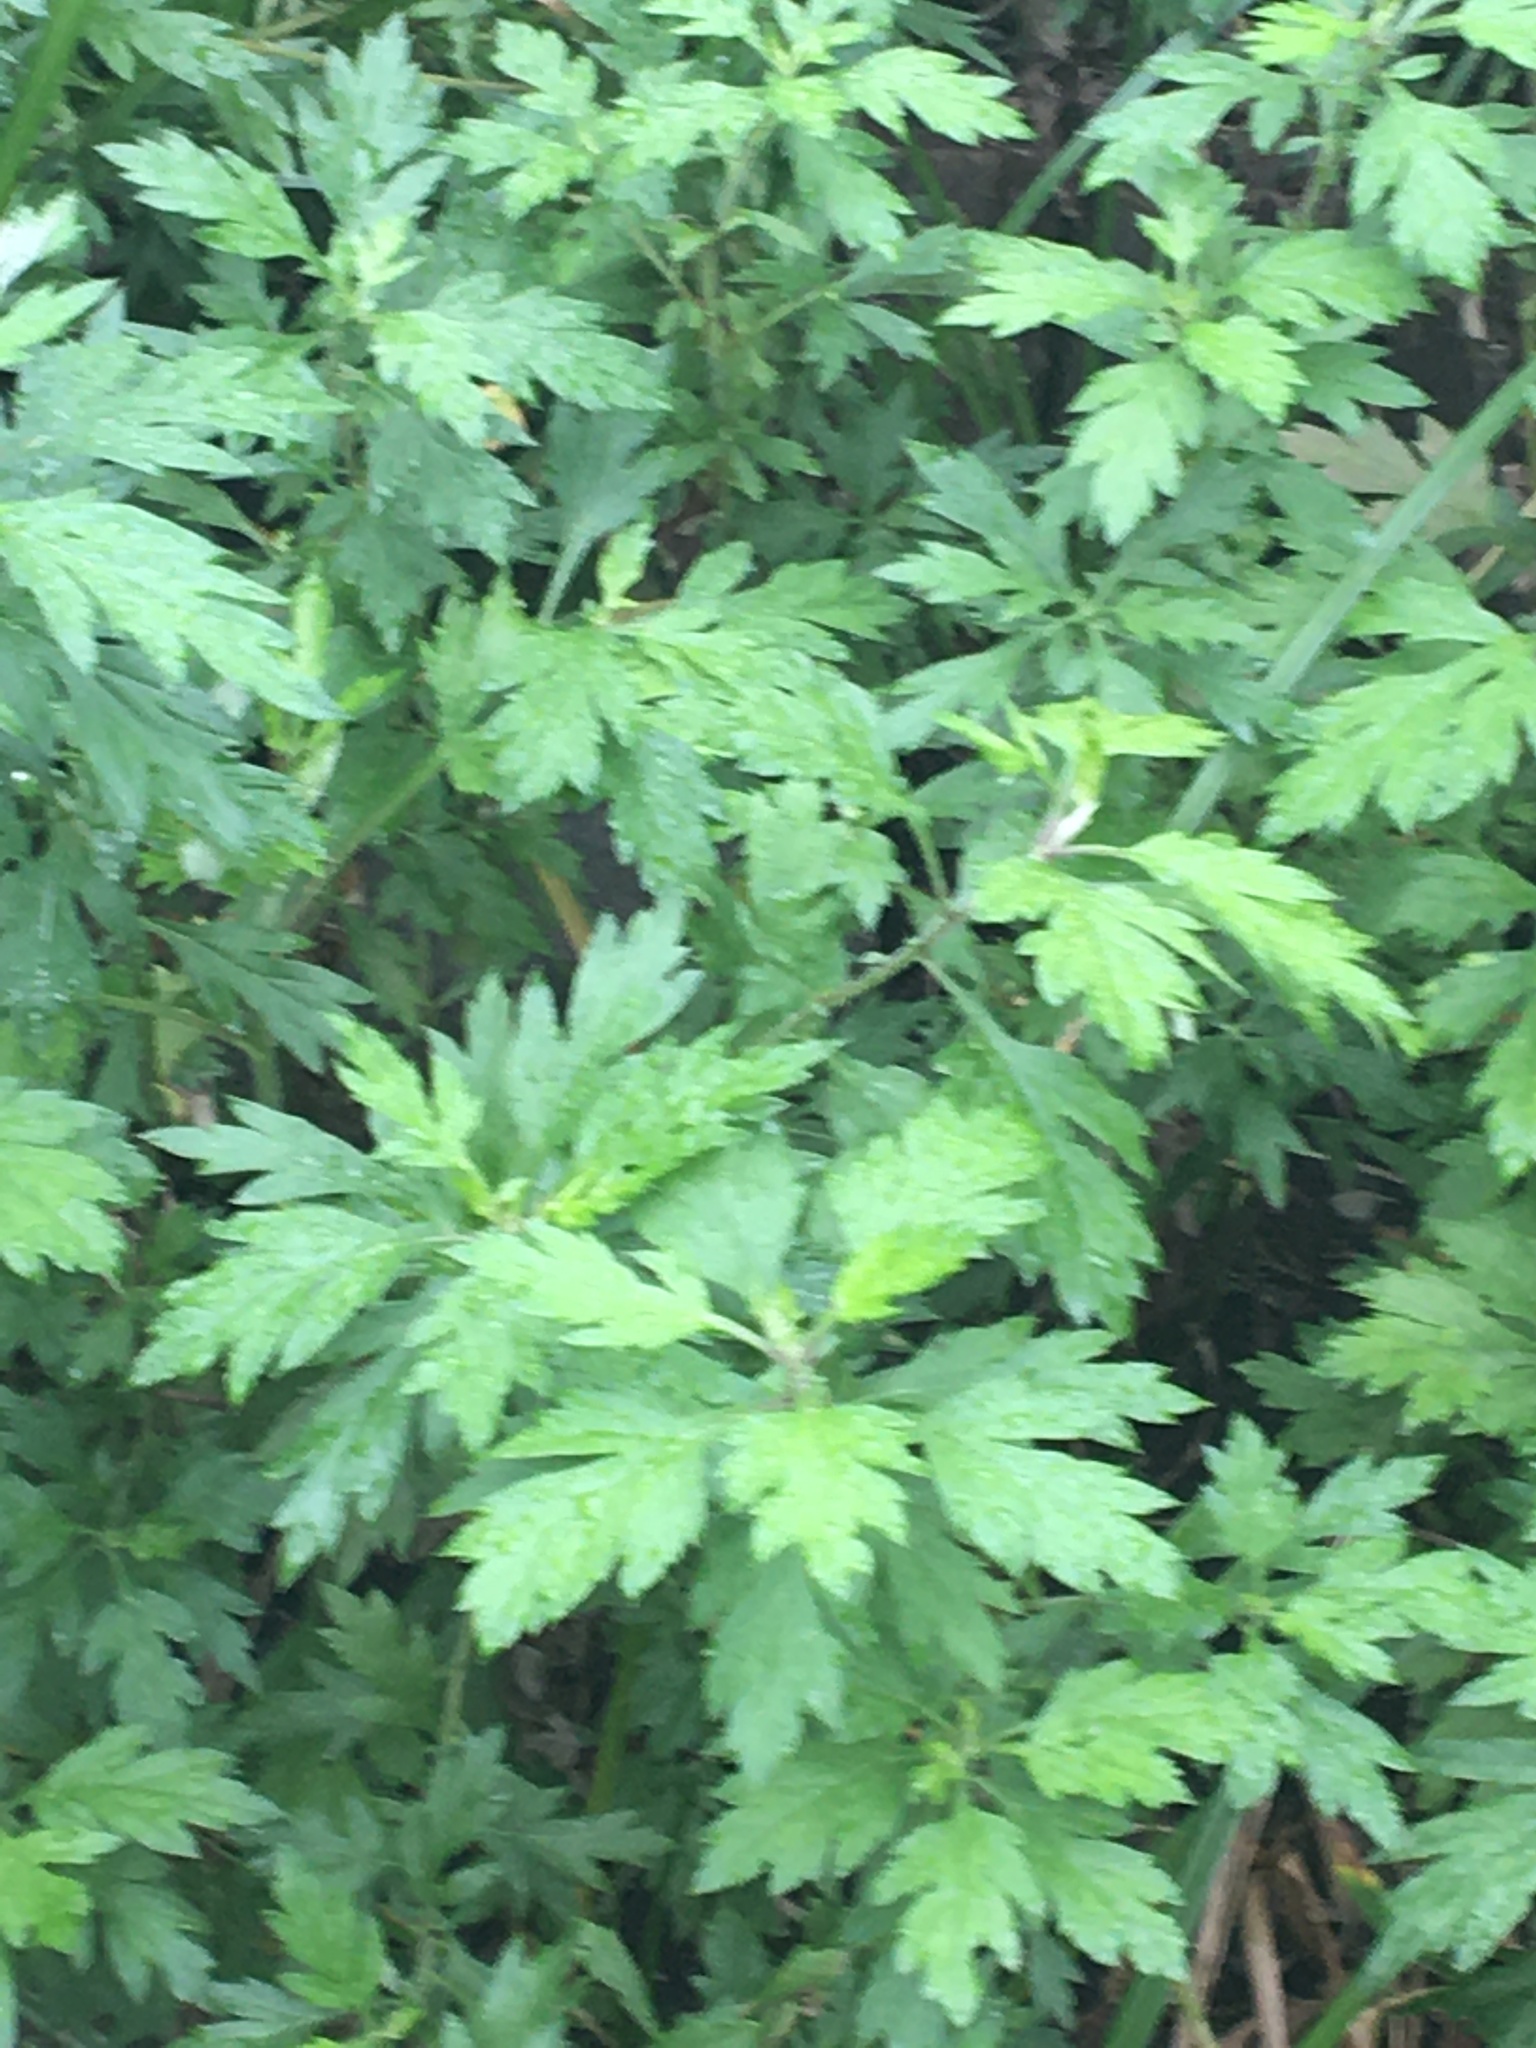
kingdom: Plantae
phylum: Tracheophyta
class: Magnoliopsida
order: Asterales
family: Asteraceae
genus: Artemisia
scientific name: Artemisia vulgaris
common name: Mugwort
